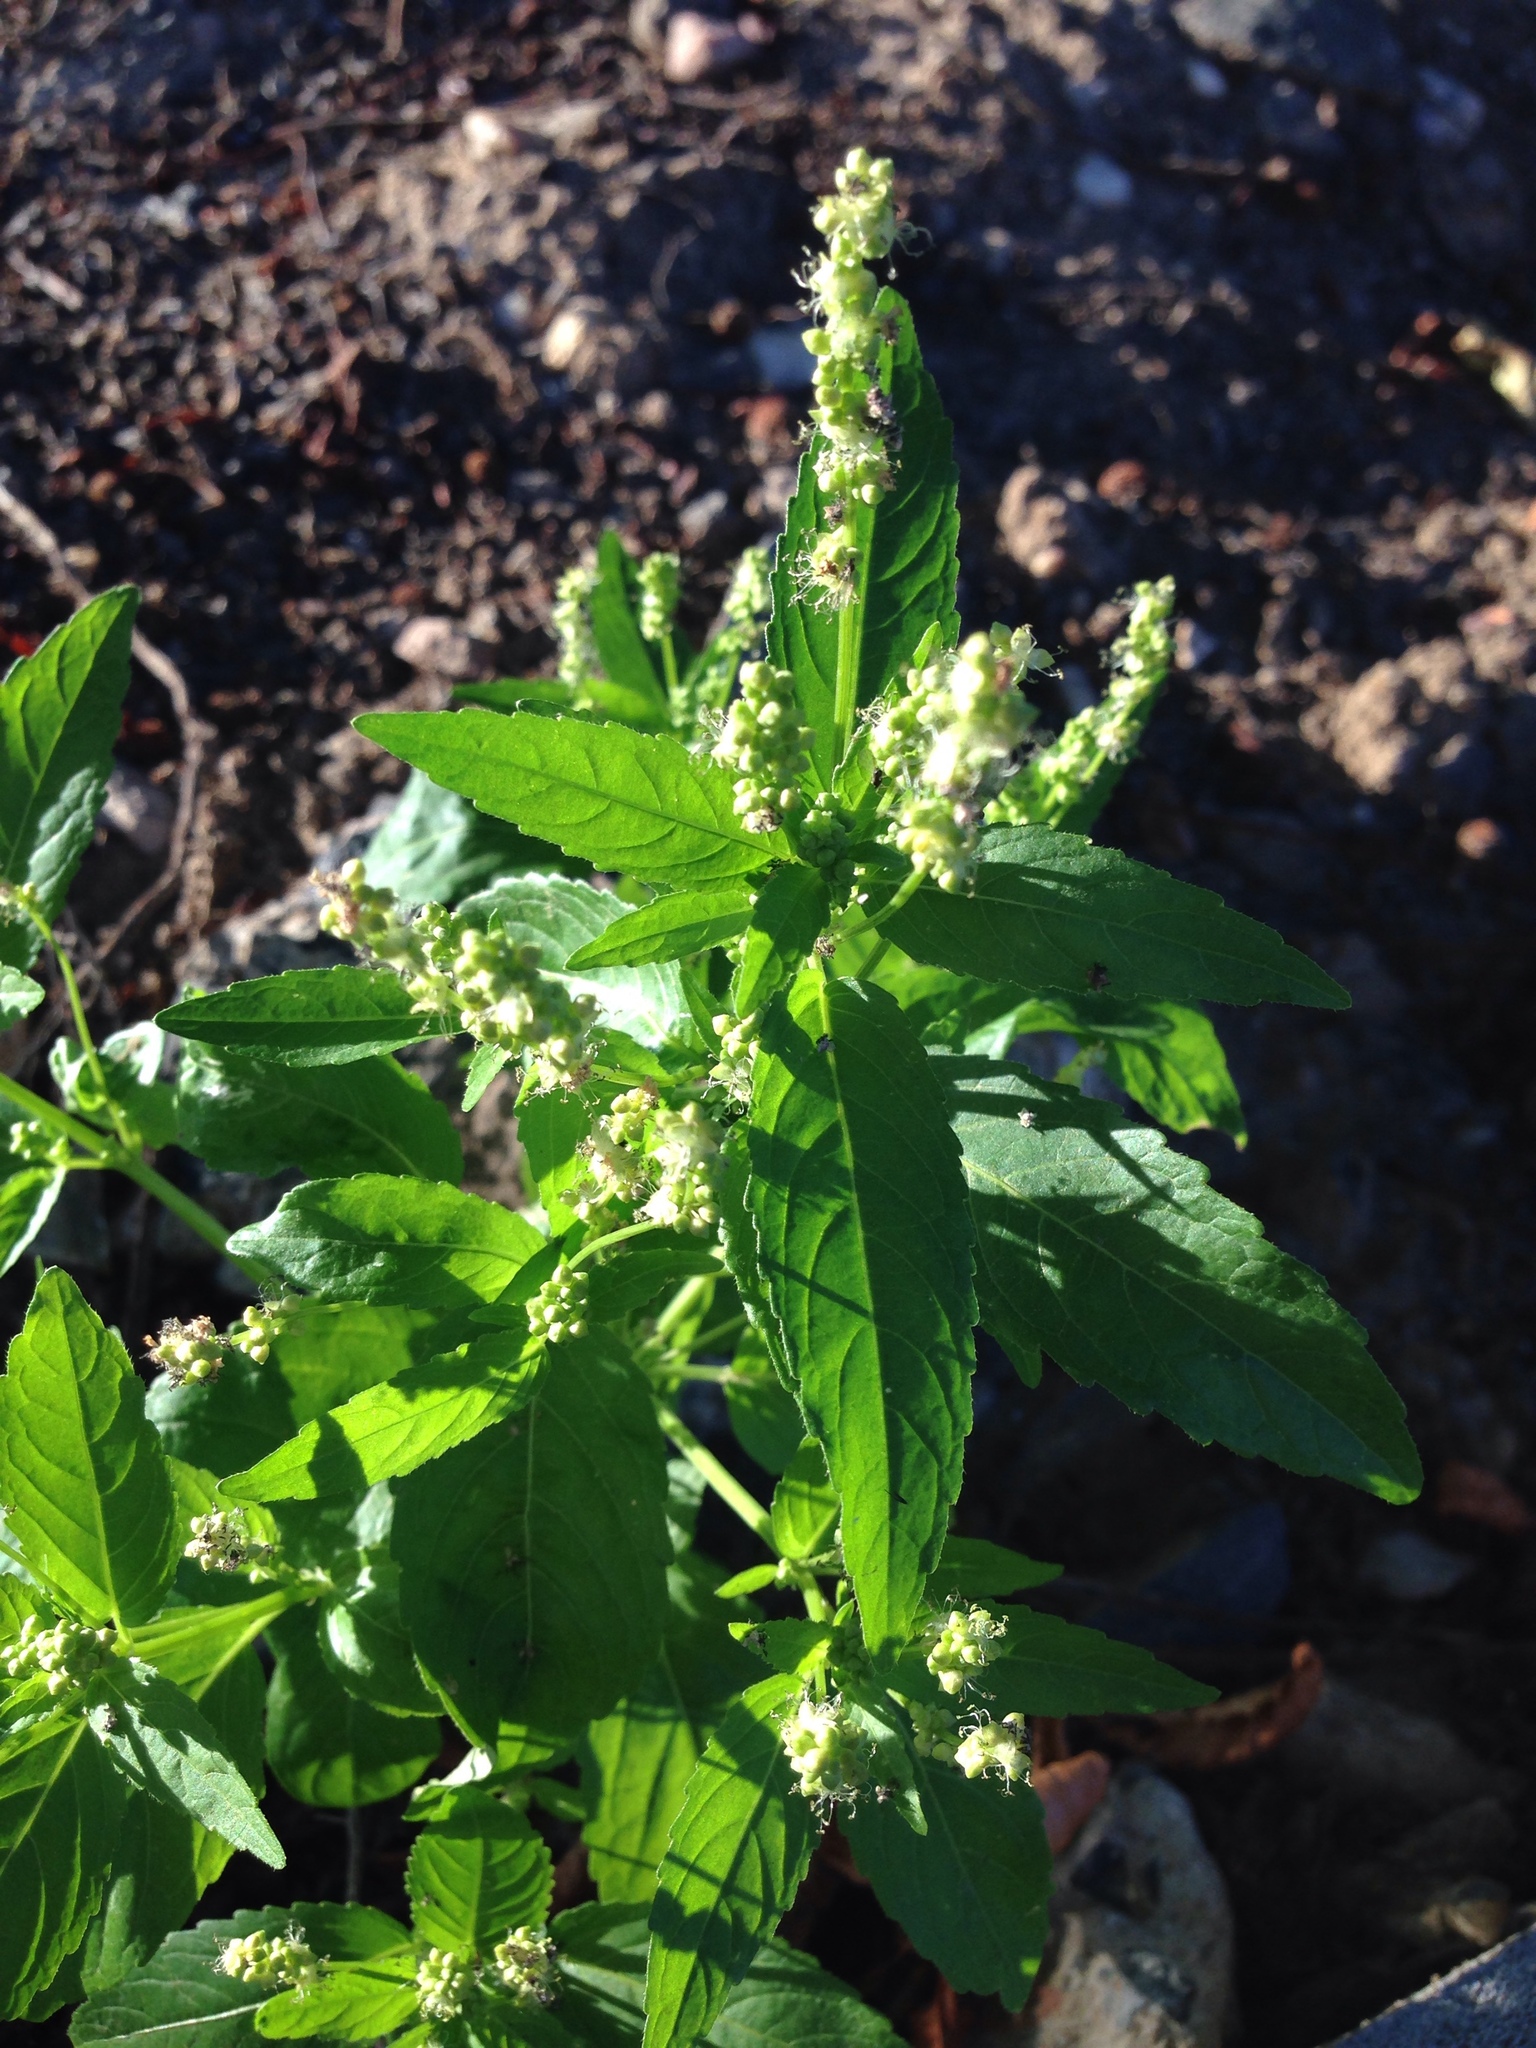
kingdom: Plantae
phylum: Tracheophyta
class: Magnoliopsida
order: Malpighiales
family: Euphorbiaceae
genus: Mercurialis
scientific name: Mercurialis annua
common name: Annual mercury
